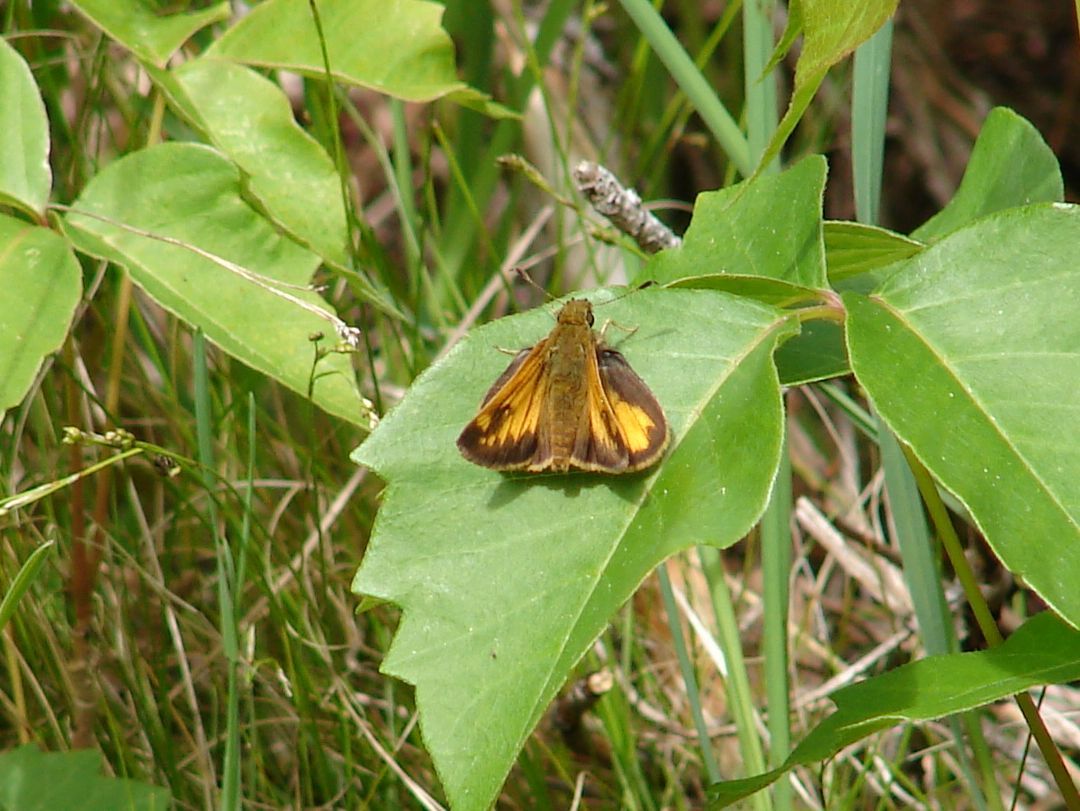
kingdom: Animalia
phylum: Arthropoda
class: Insecta
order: Lepidoptera
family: Hesperiidae
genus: Lon
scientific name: Lon hobomok
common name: Hobomok skipper
